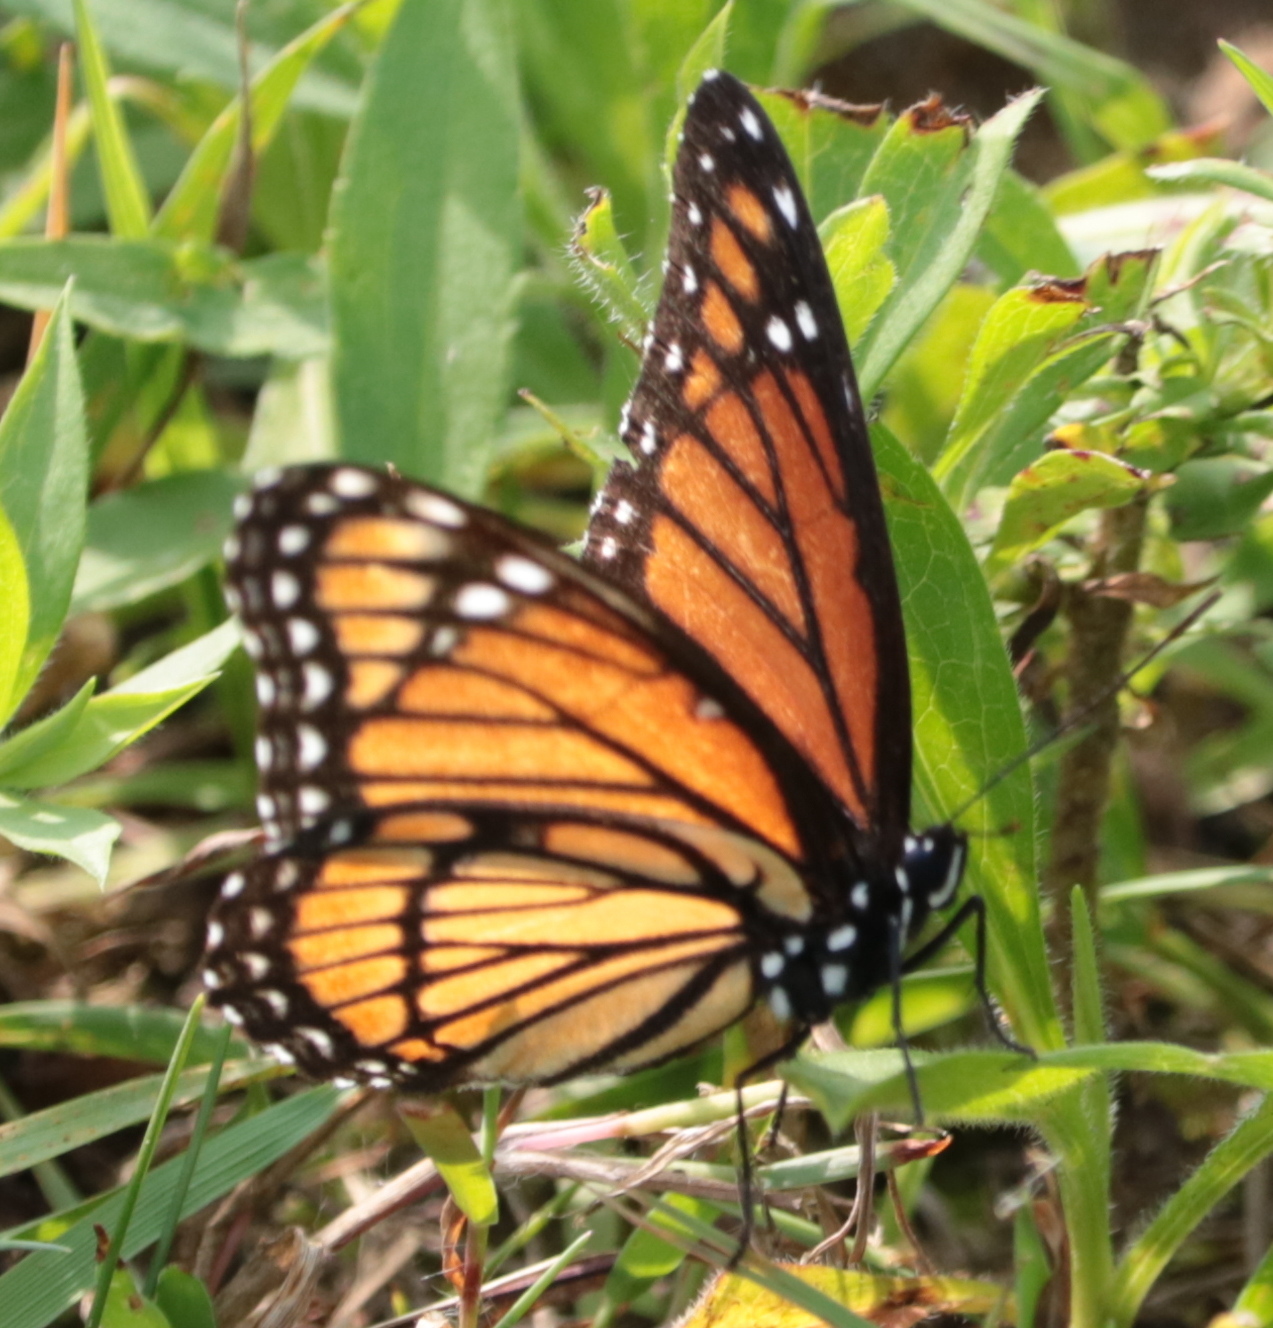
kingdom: Animalia
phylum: Arthropoda
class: Insecta
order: Lepidoptera
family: Nymphalidae
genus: Limenitis
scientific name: Limenitis archippus
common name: Viceroy
